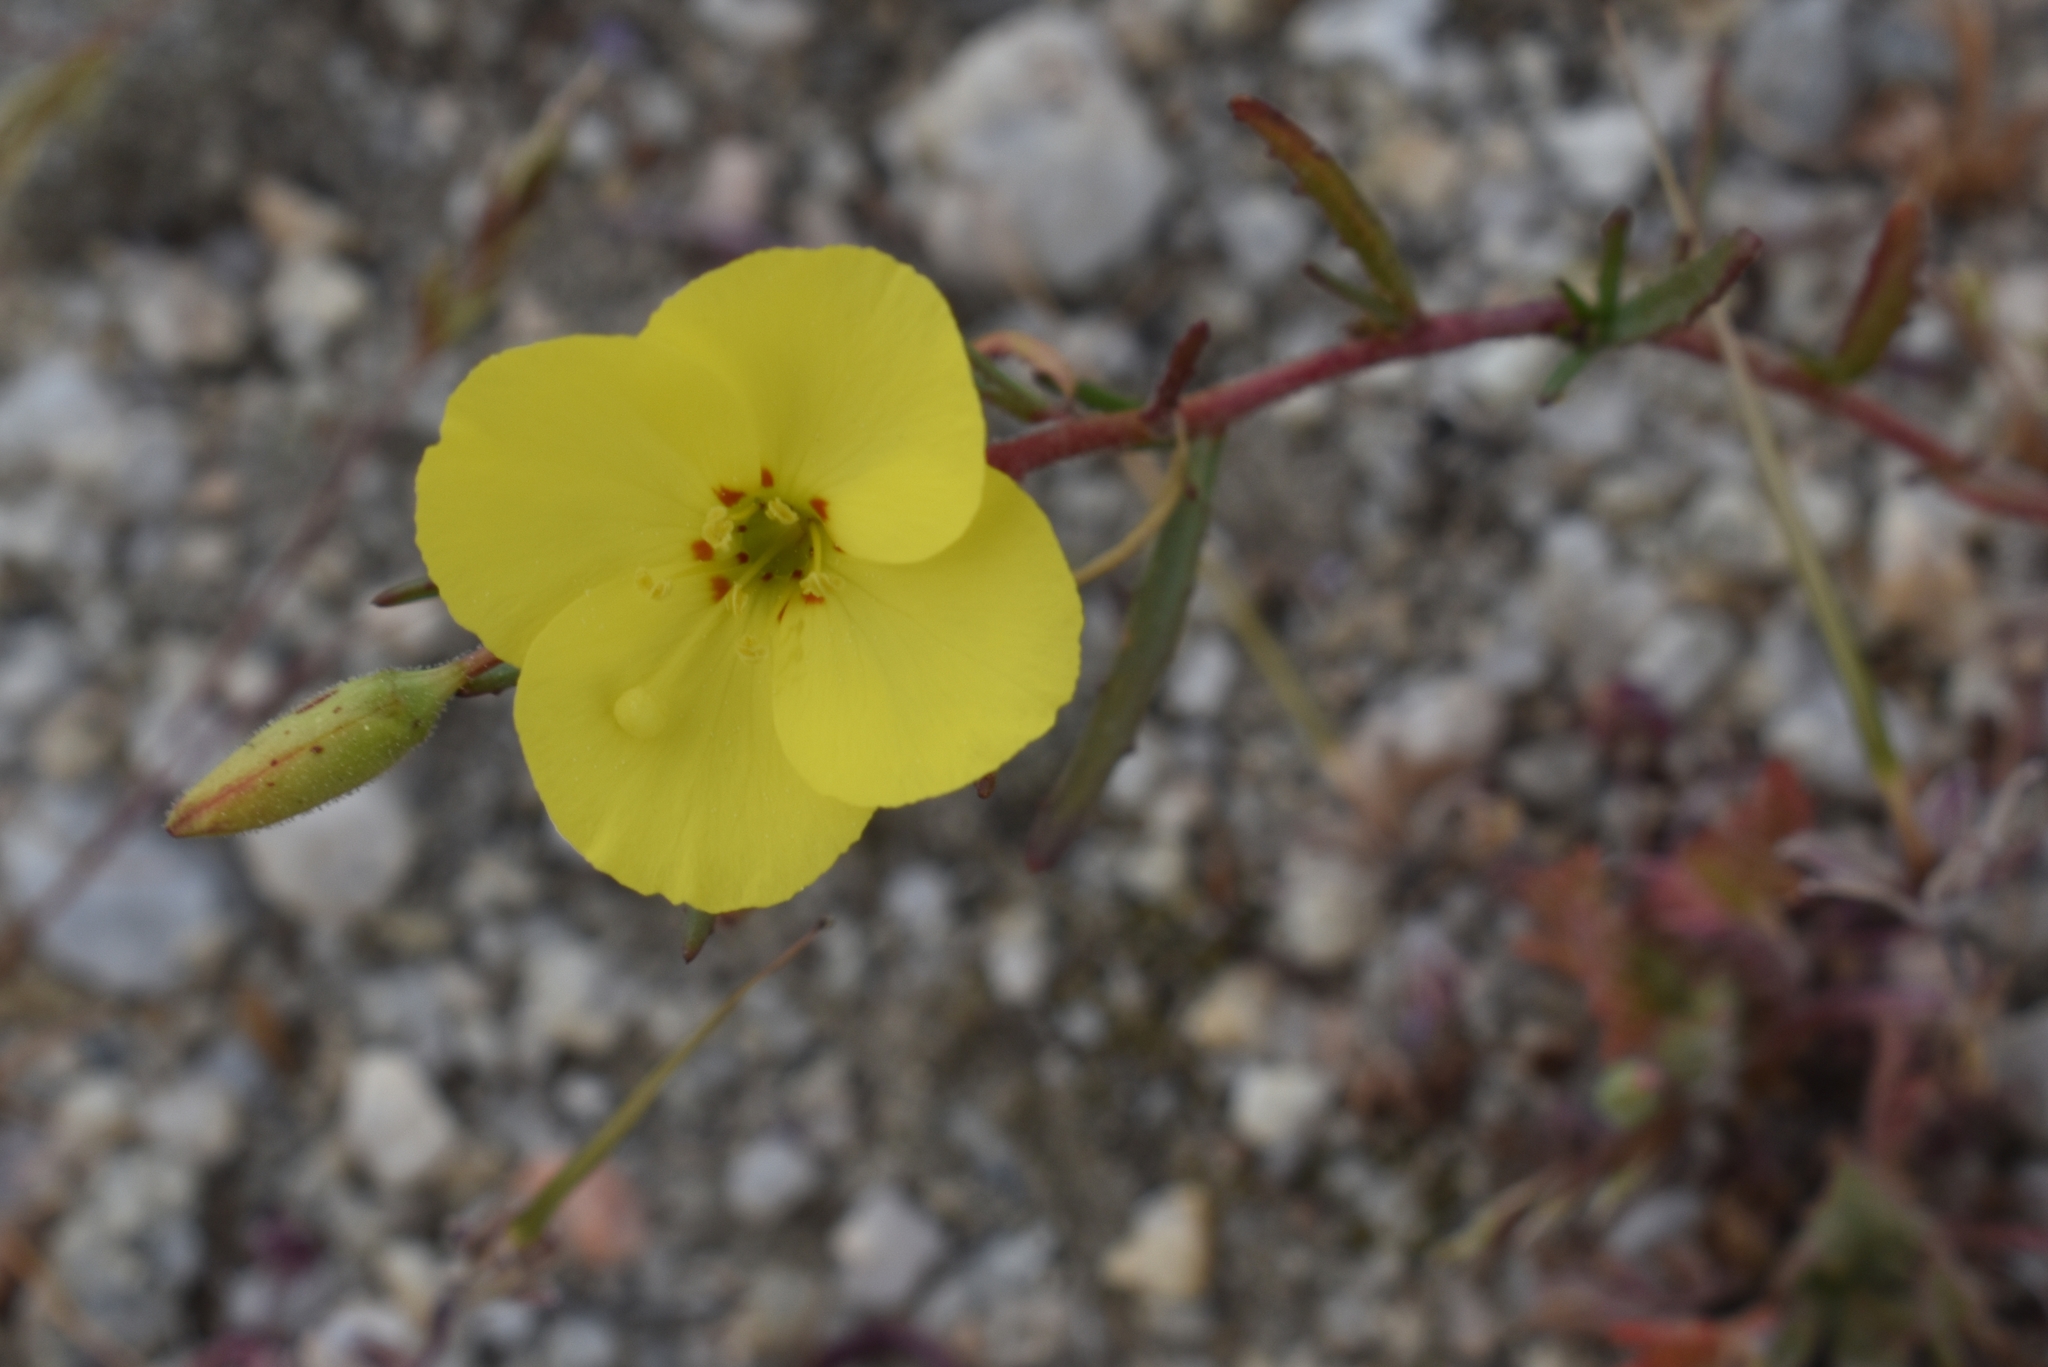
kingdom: Plantae
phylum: Tracheophyta
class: Magnoliopsida
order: Myrtales
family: Onagraceae
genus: Camissonia
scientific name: Camissonia campestris
